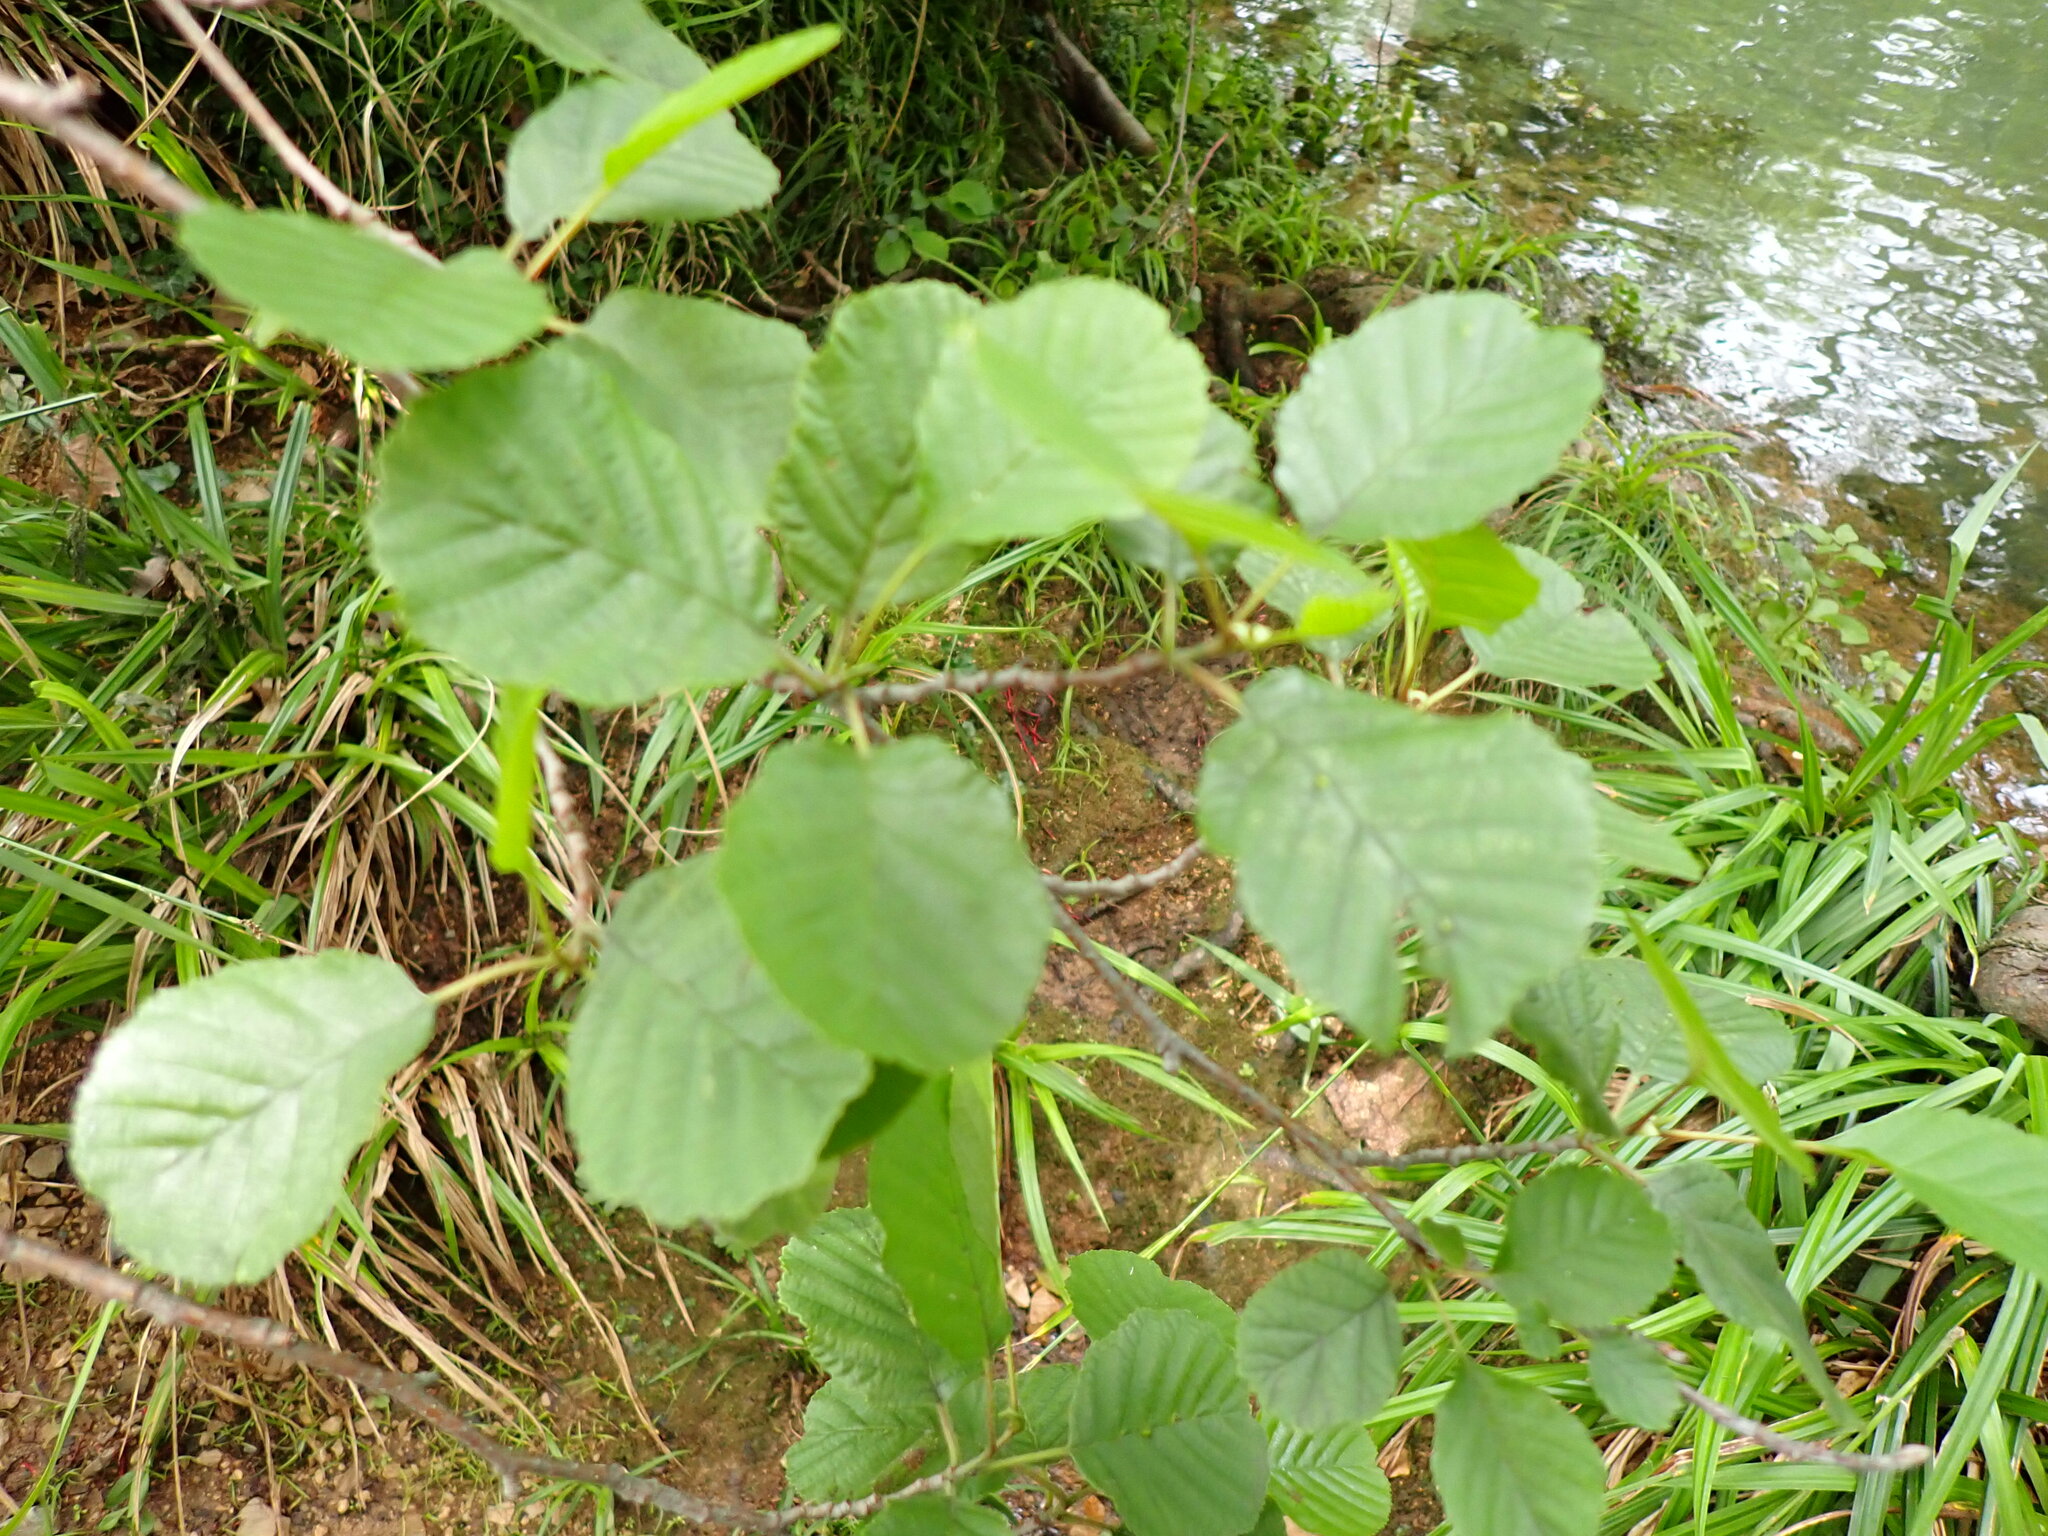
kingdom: Plantae
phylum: Tracheophyta
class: Magnoliopsida
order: Fagales
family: Betulaceae
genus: Alnus
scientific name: Alnus glutinosa
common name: Black alder
